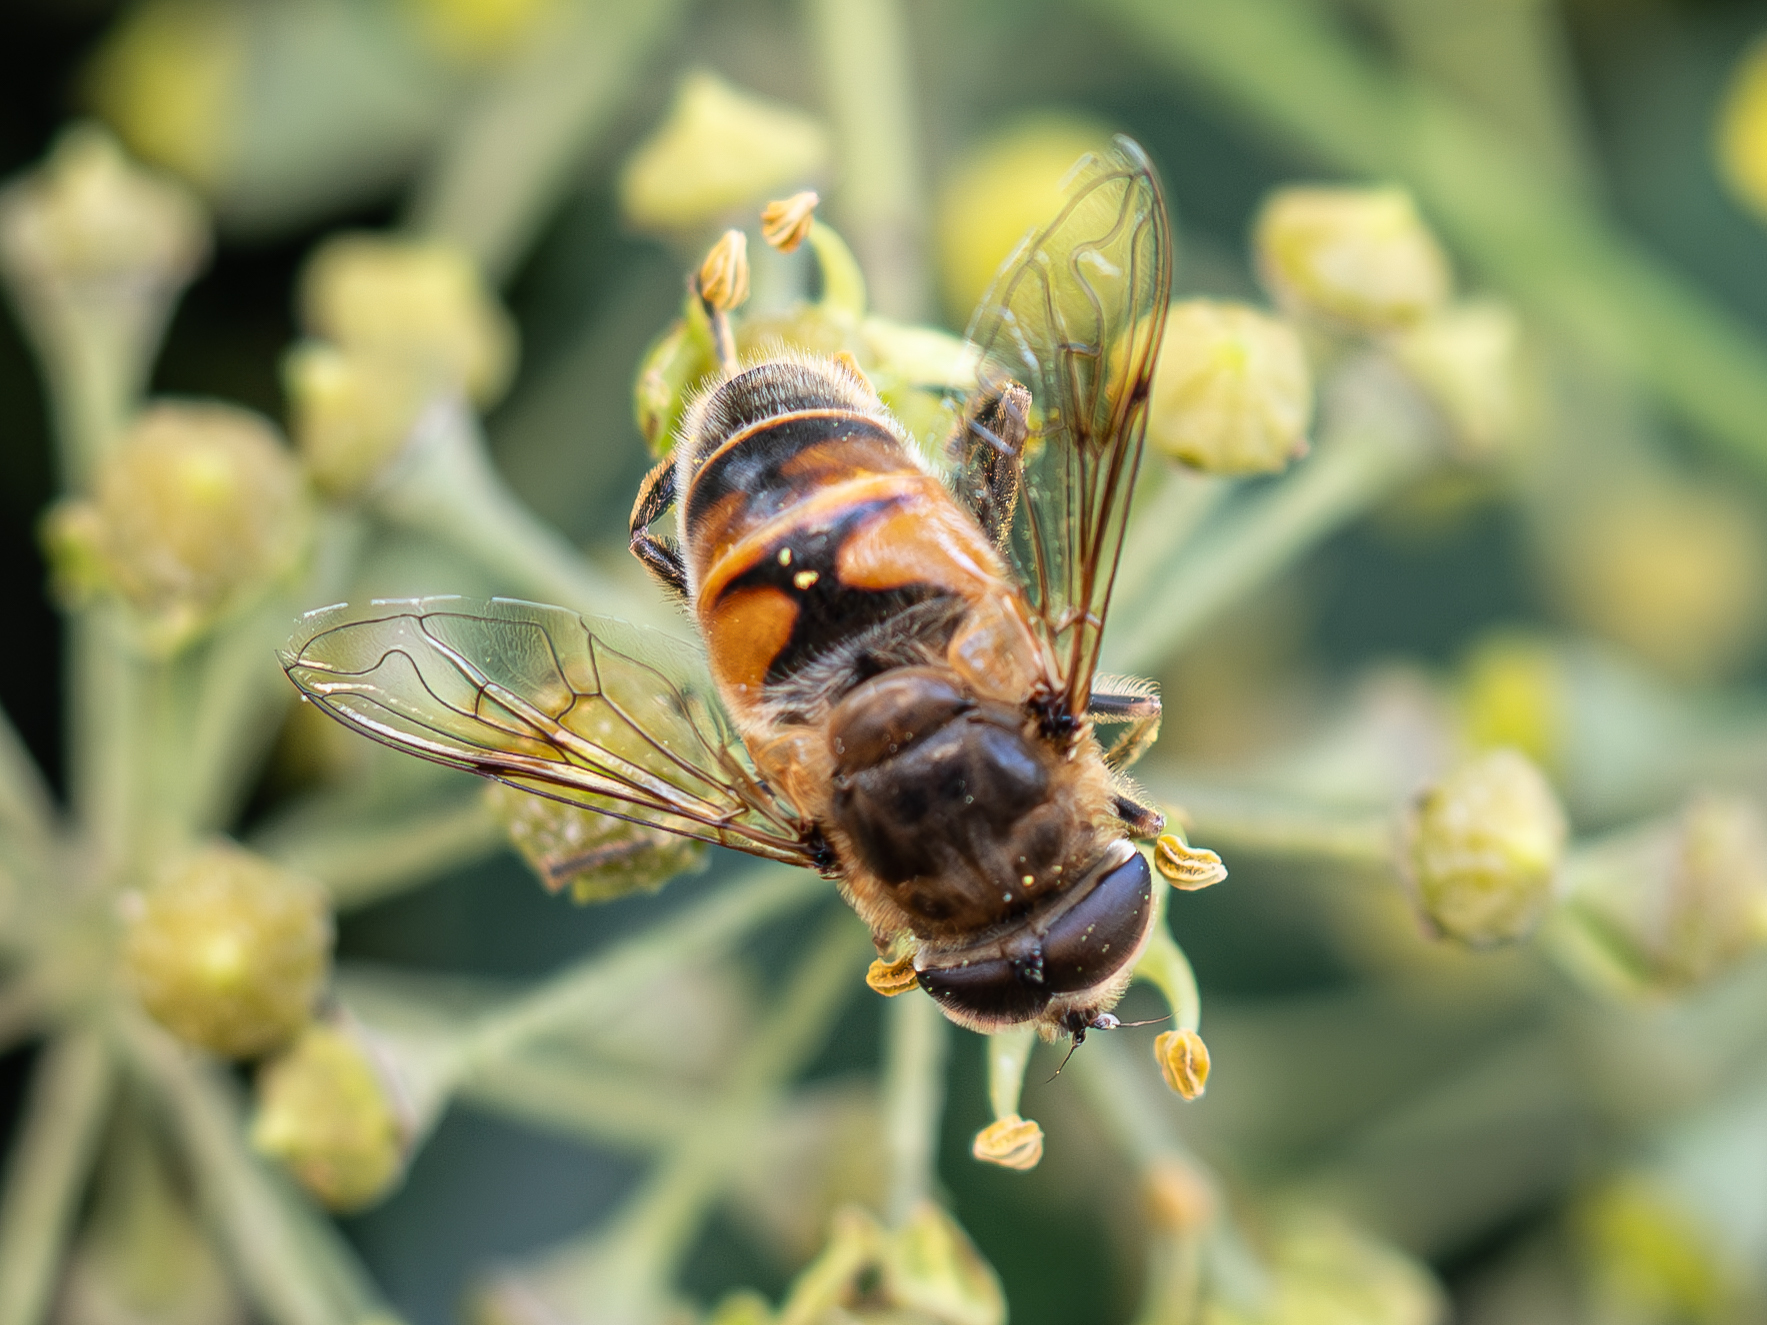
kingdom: Animalia
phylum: Arthropoda
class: Insecta
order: Diptera
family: Syrphidae
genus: Eristalis
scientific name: Eristalis tenax
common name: Drone fly
